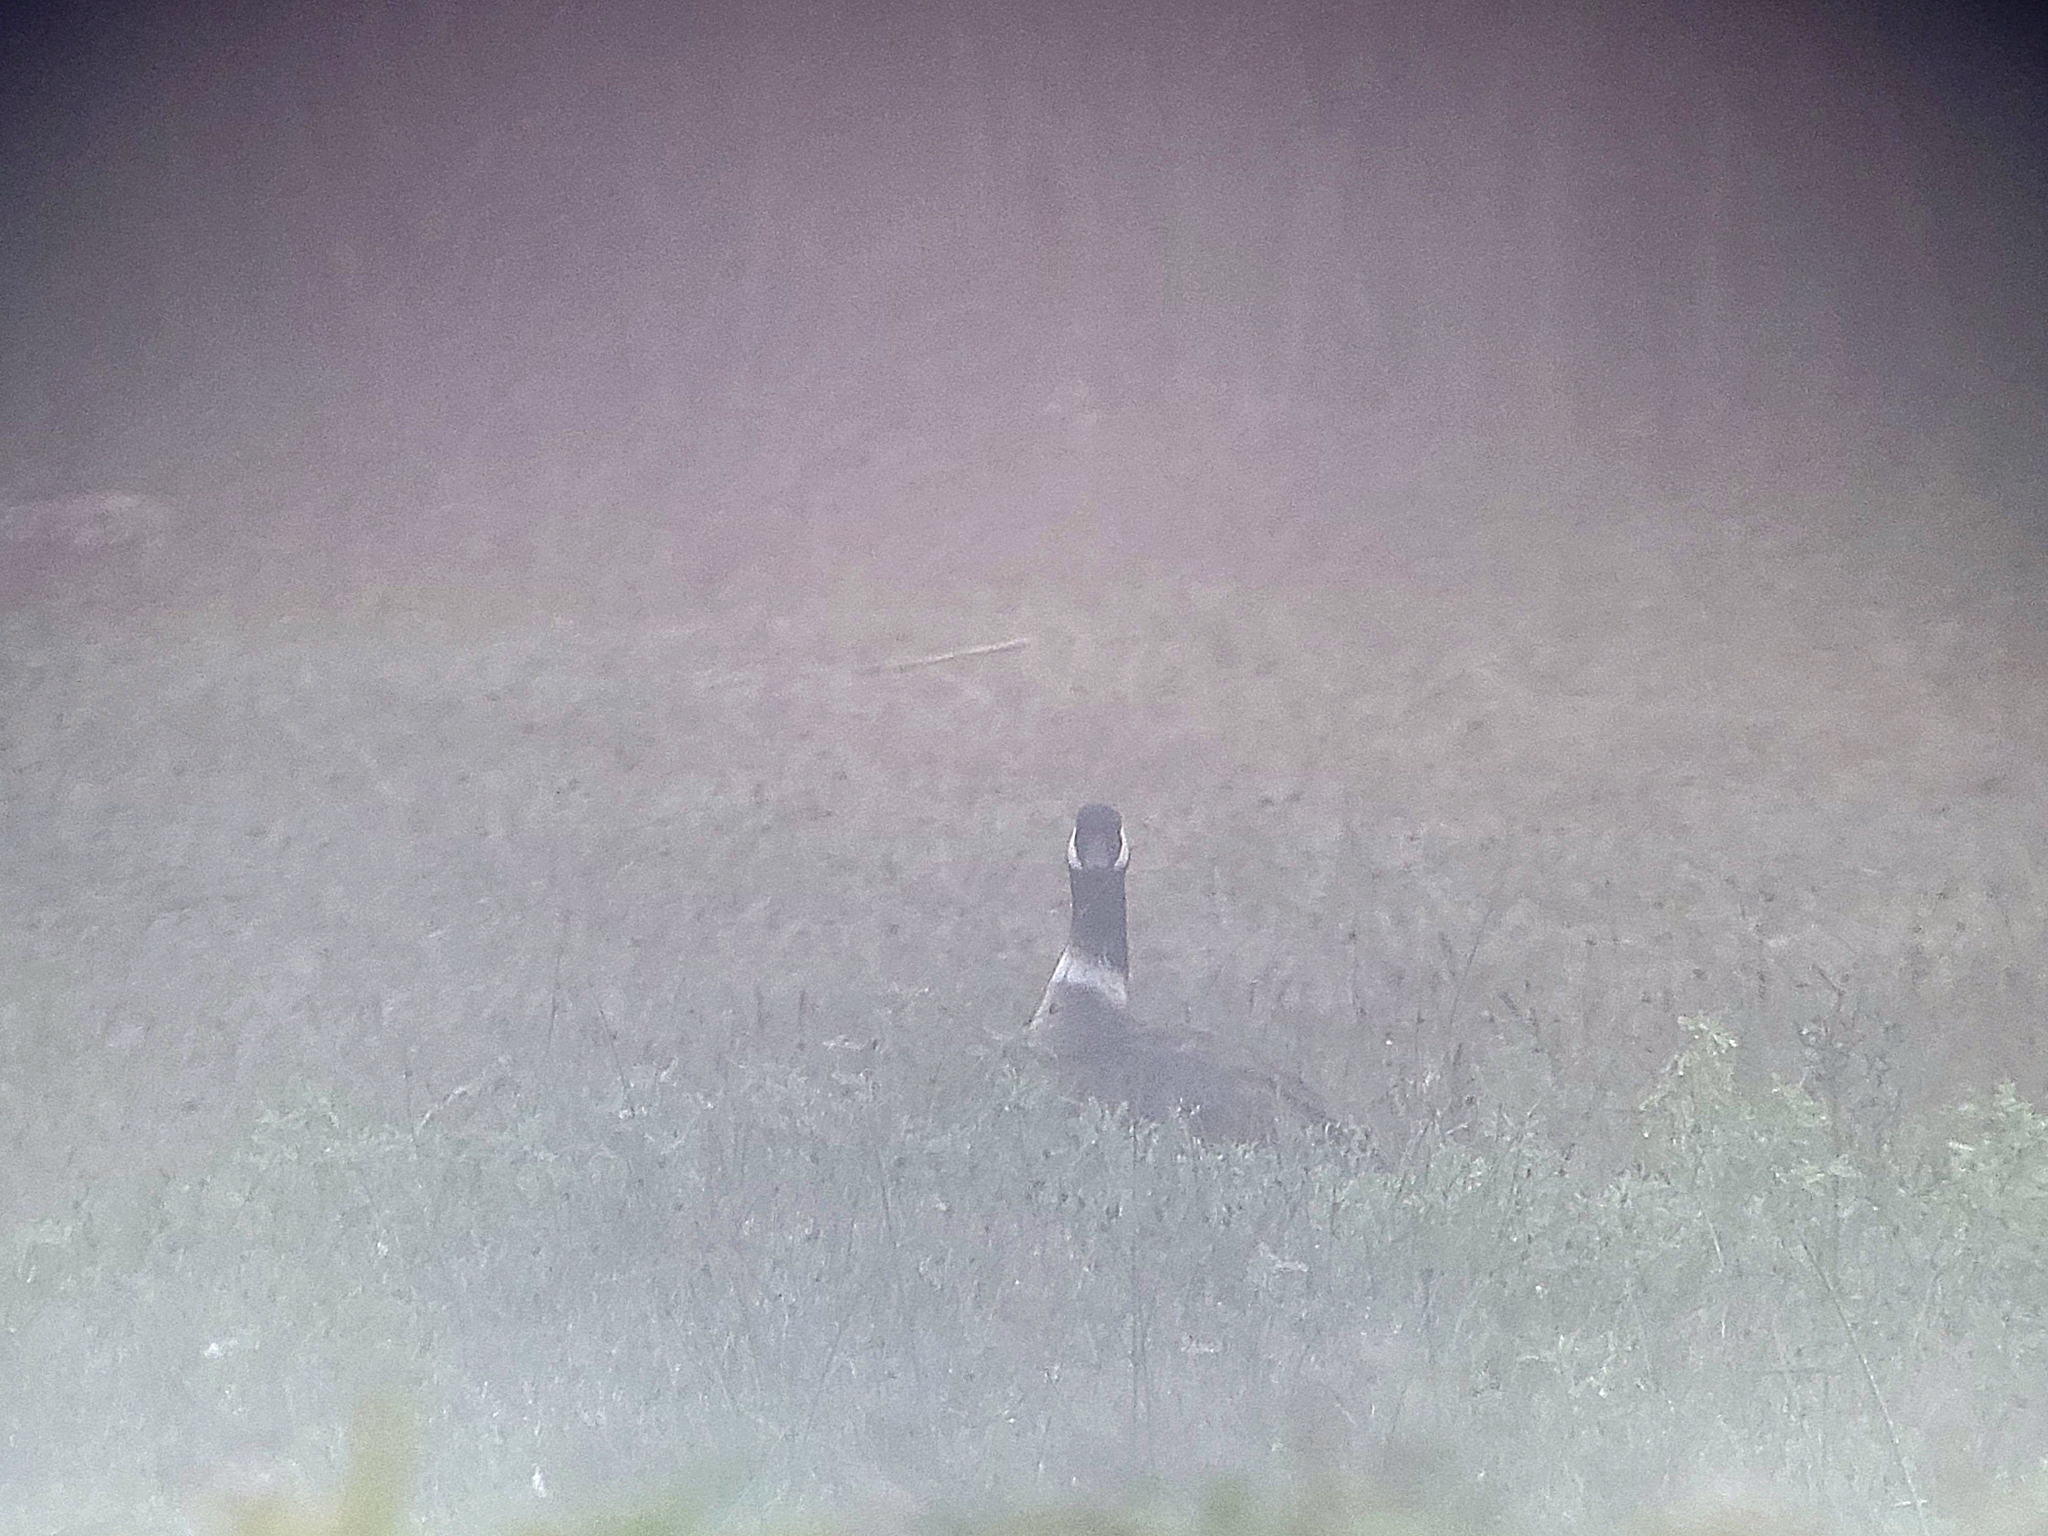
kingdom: Animalia
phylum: Chordata
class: Aves
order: Anseriformes
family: Anatidae
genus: Branta
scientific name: Branta hutchinsii
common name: Cackling goose
